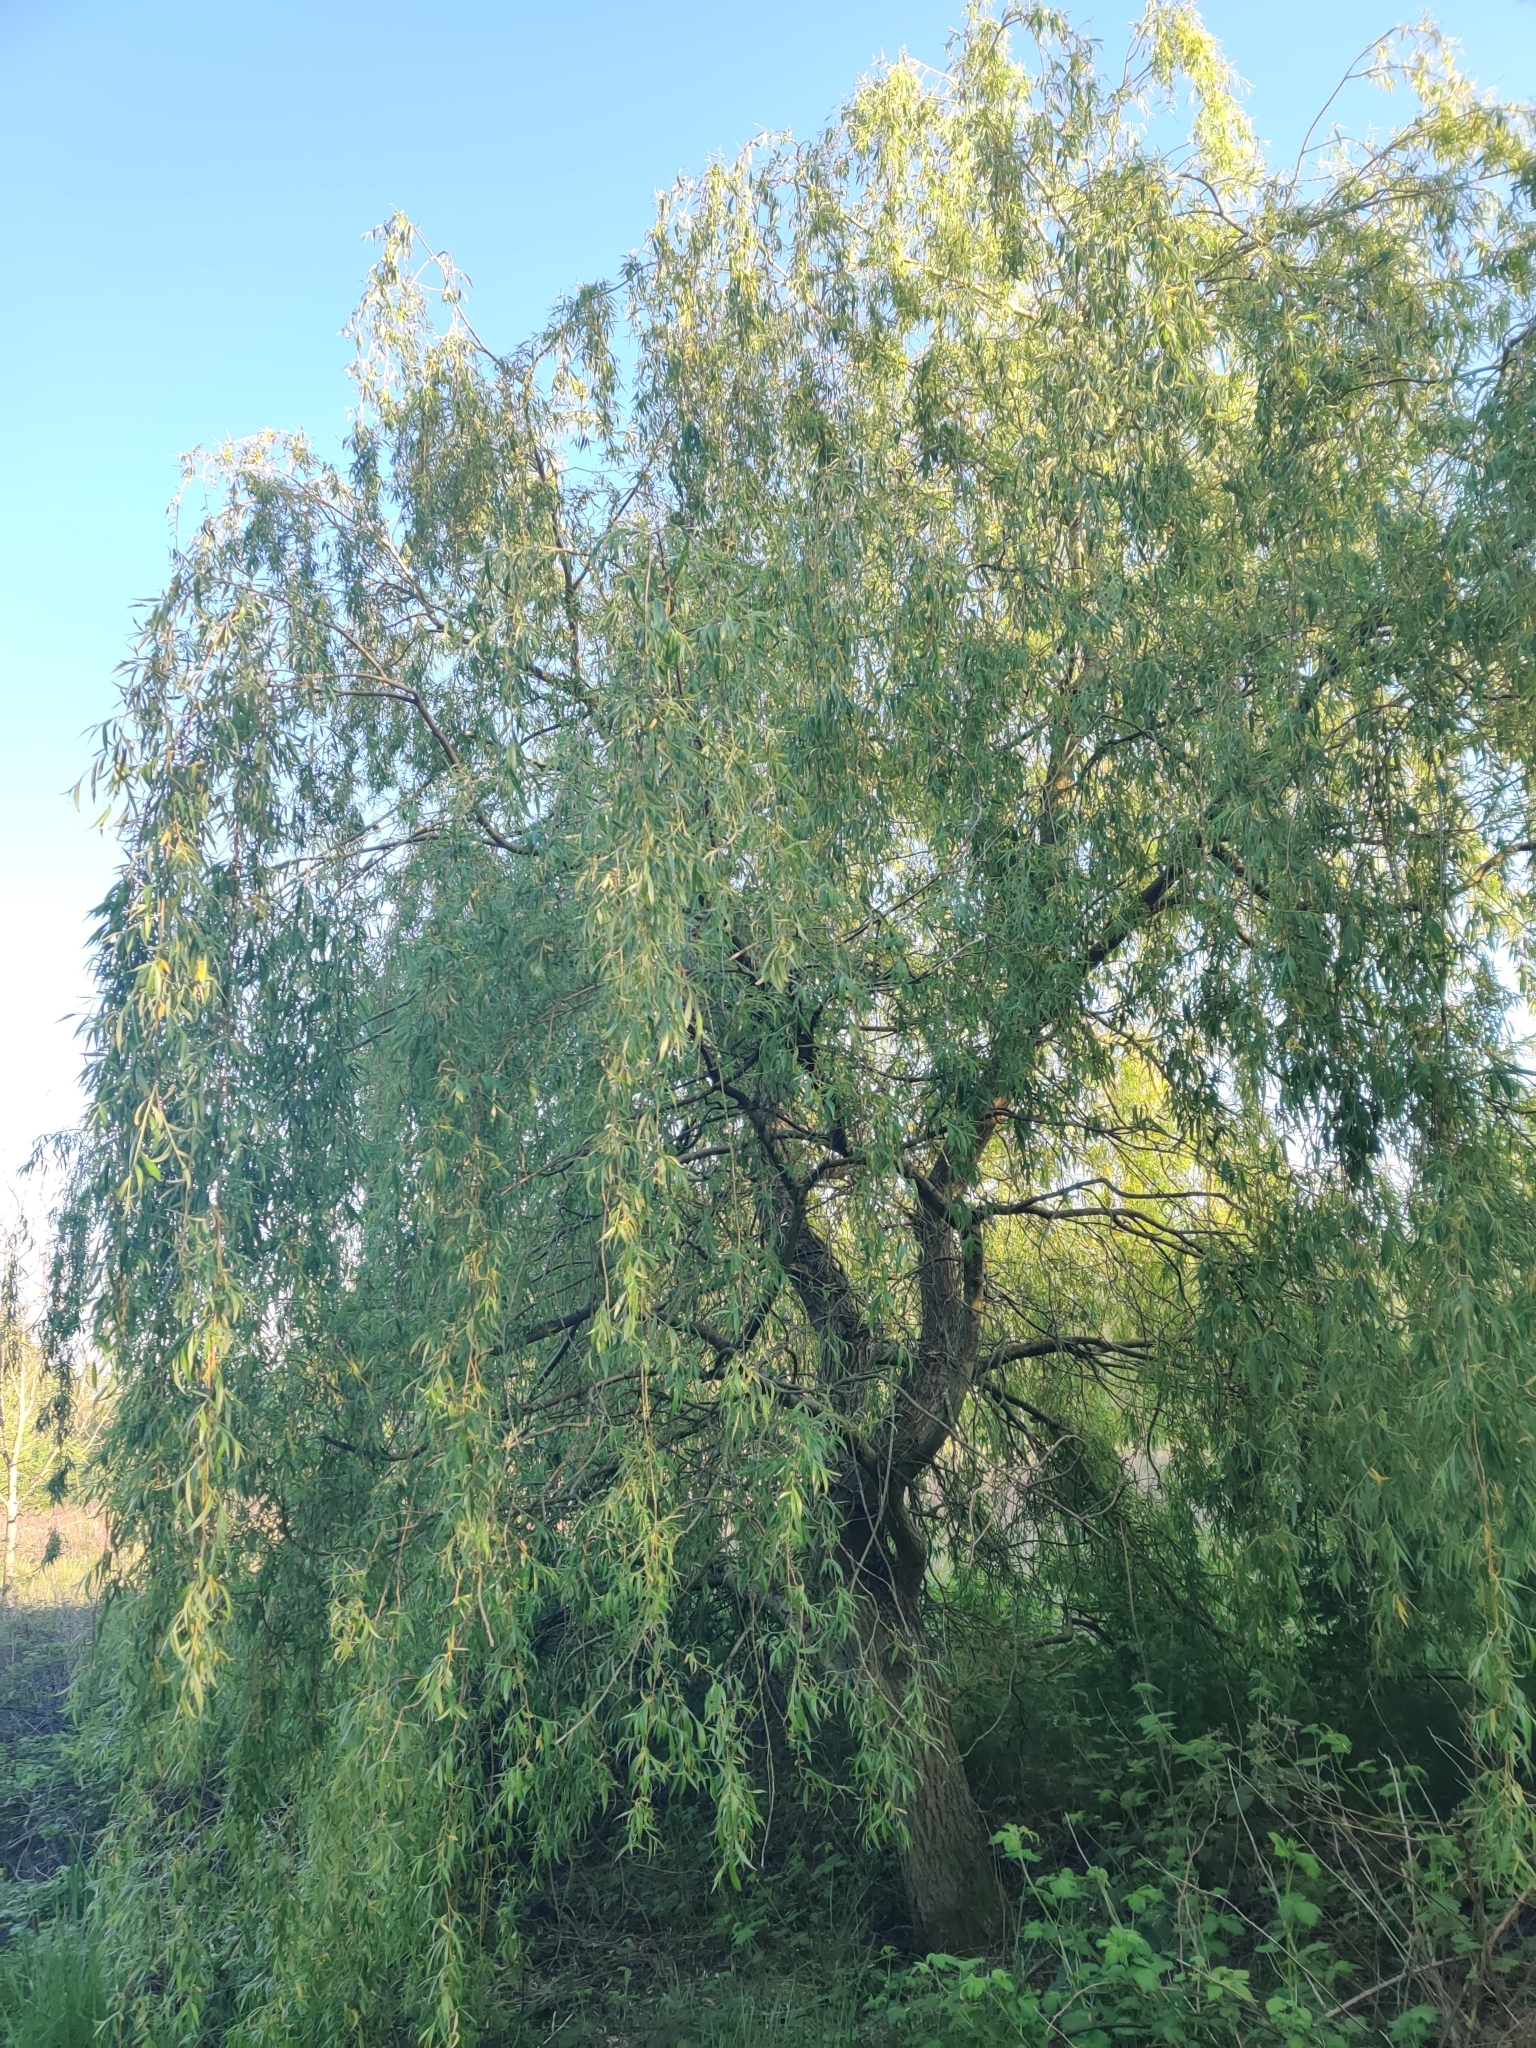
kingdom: Plantae
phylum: Tracheophyta
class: Magnoliopsida
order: Malpighiales
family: Salicaceae
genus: Salix
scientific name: Salix pendulina
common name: Wisconsin weeping willow
